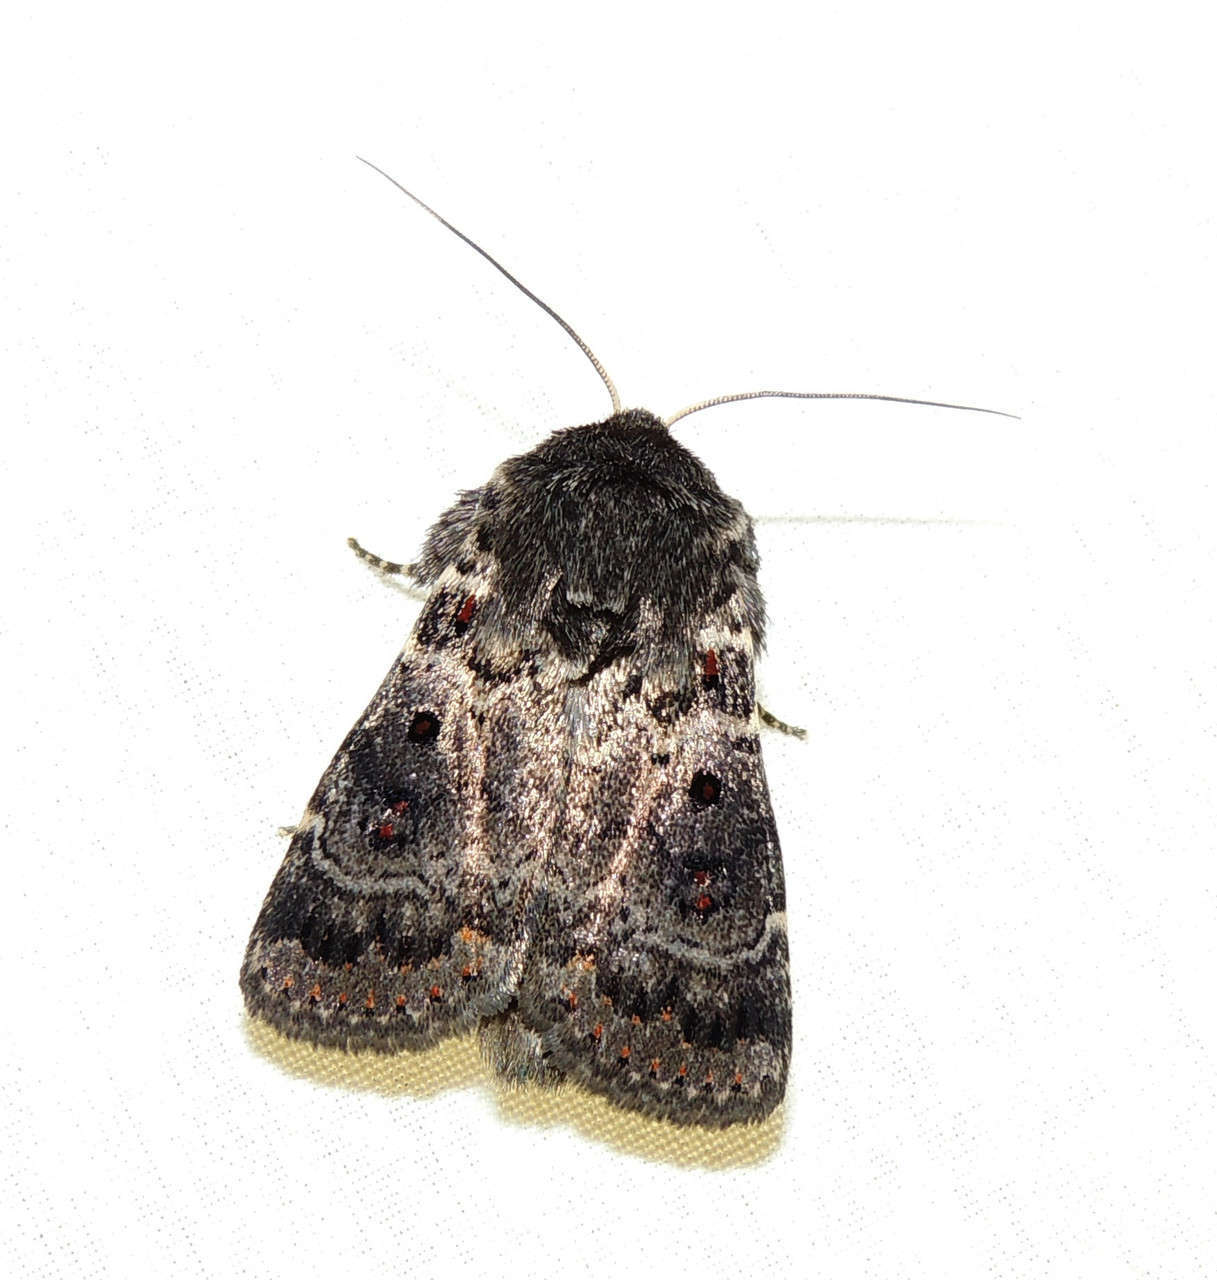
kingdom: Animalia
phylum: Arthropoda
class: Insecta
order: Lepidoptera
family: Noctuidae
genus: Proteuxoa
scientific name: Proteuxoa rubripuncta
